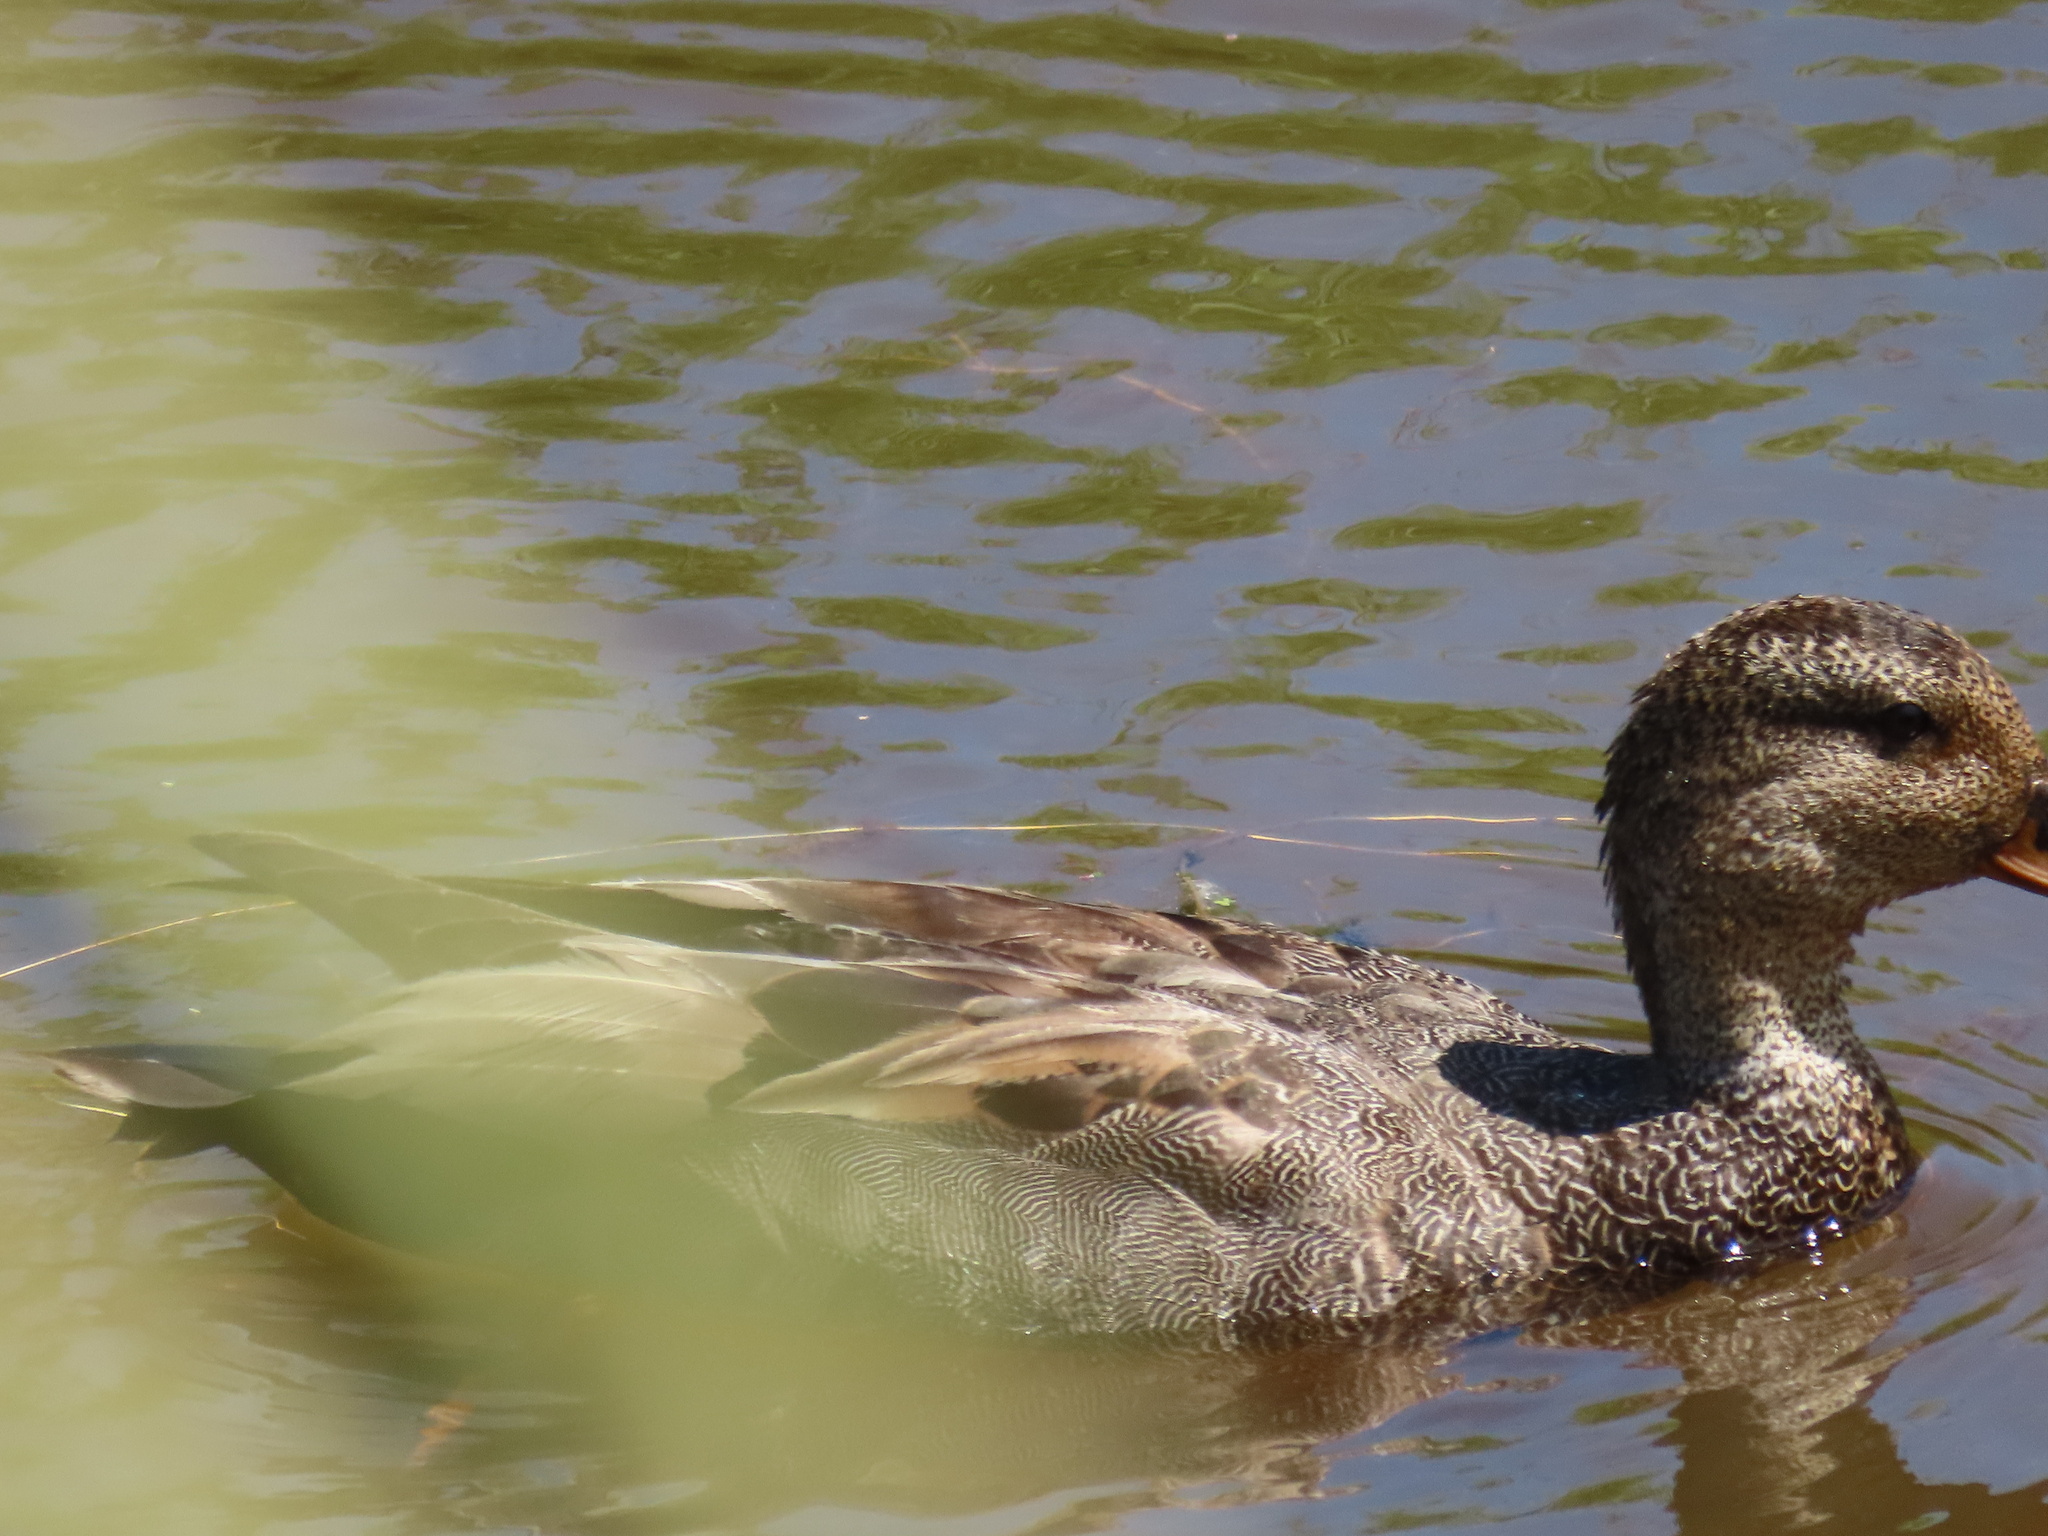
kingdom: Animalia
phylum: Chordata
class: Aves
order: Anseriformes
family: Anatidae
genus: Mareca
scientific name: Mareca strepera
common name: Gadwall
